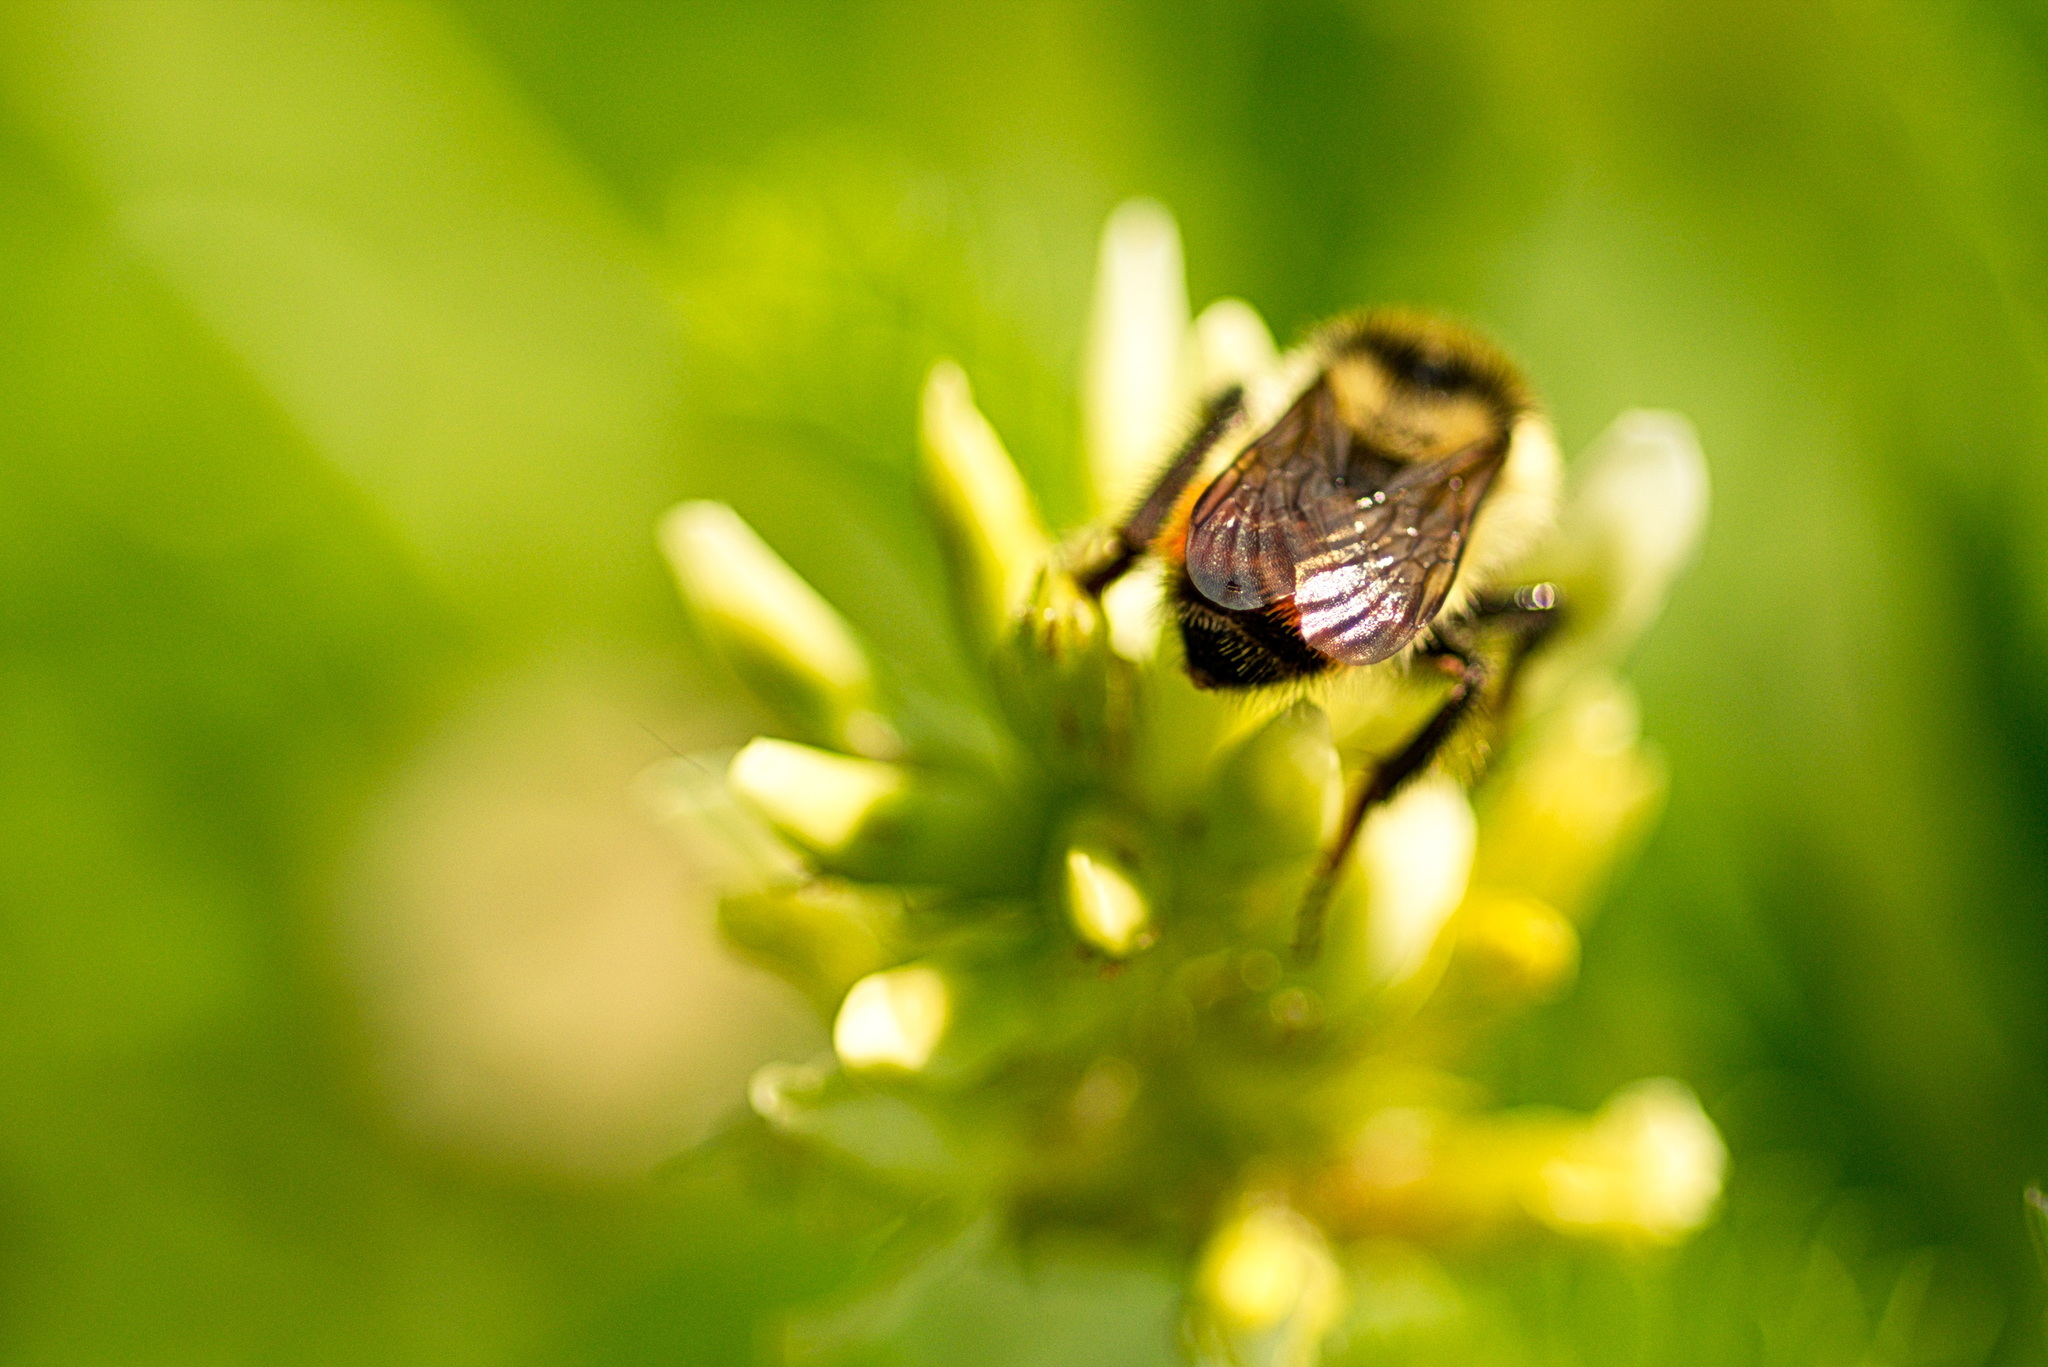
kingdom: Animalia
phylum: Arthropoda
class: Insecta
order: Hymenoptera
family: Apidae
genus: Bombus
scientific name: Bombus centralis
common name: Central bumble bee
